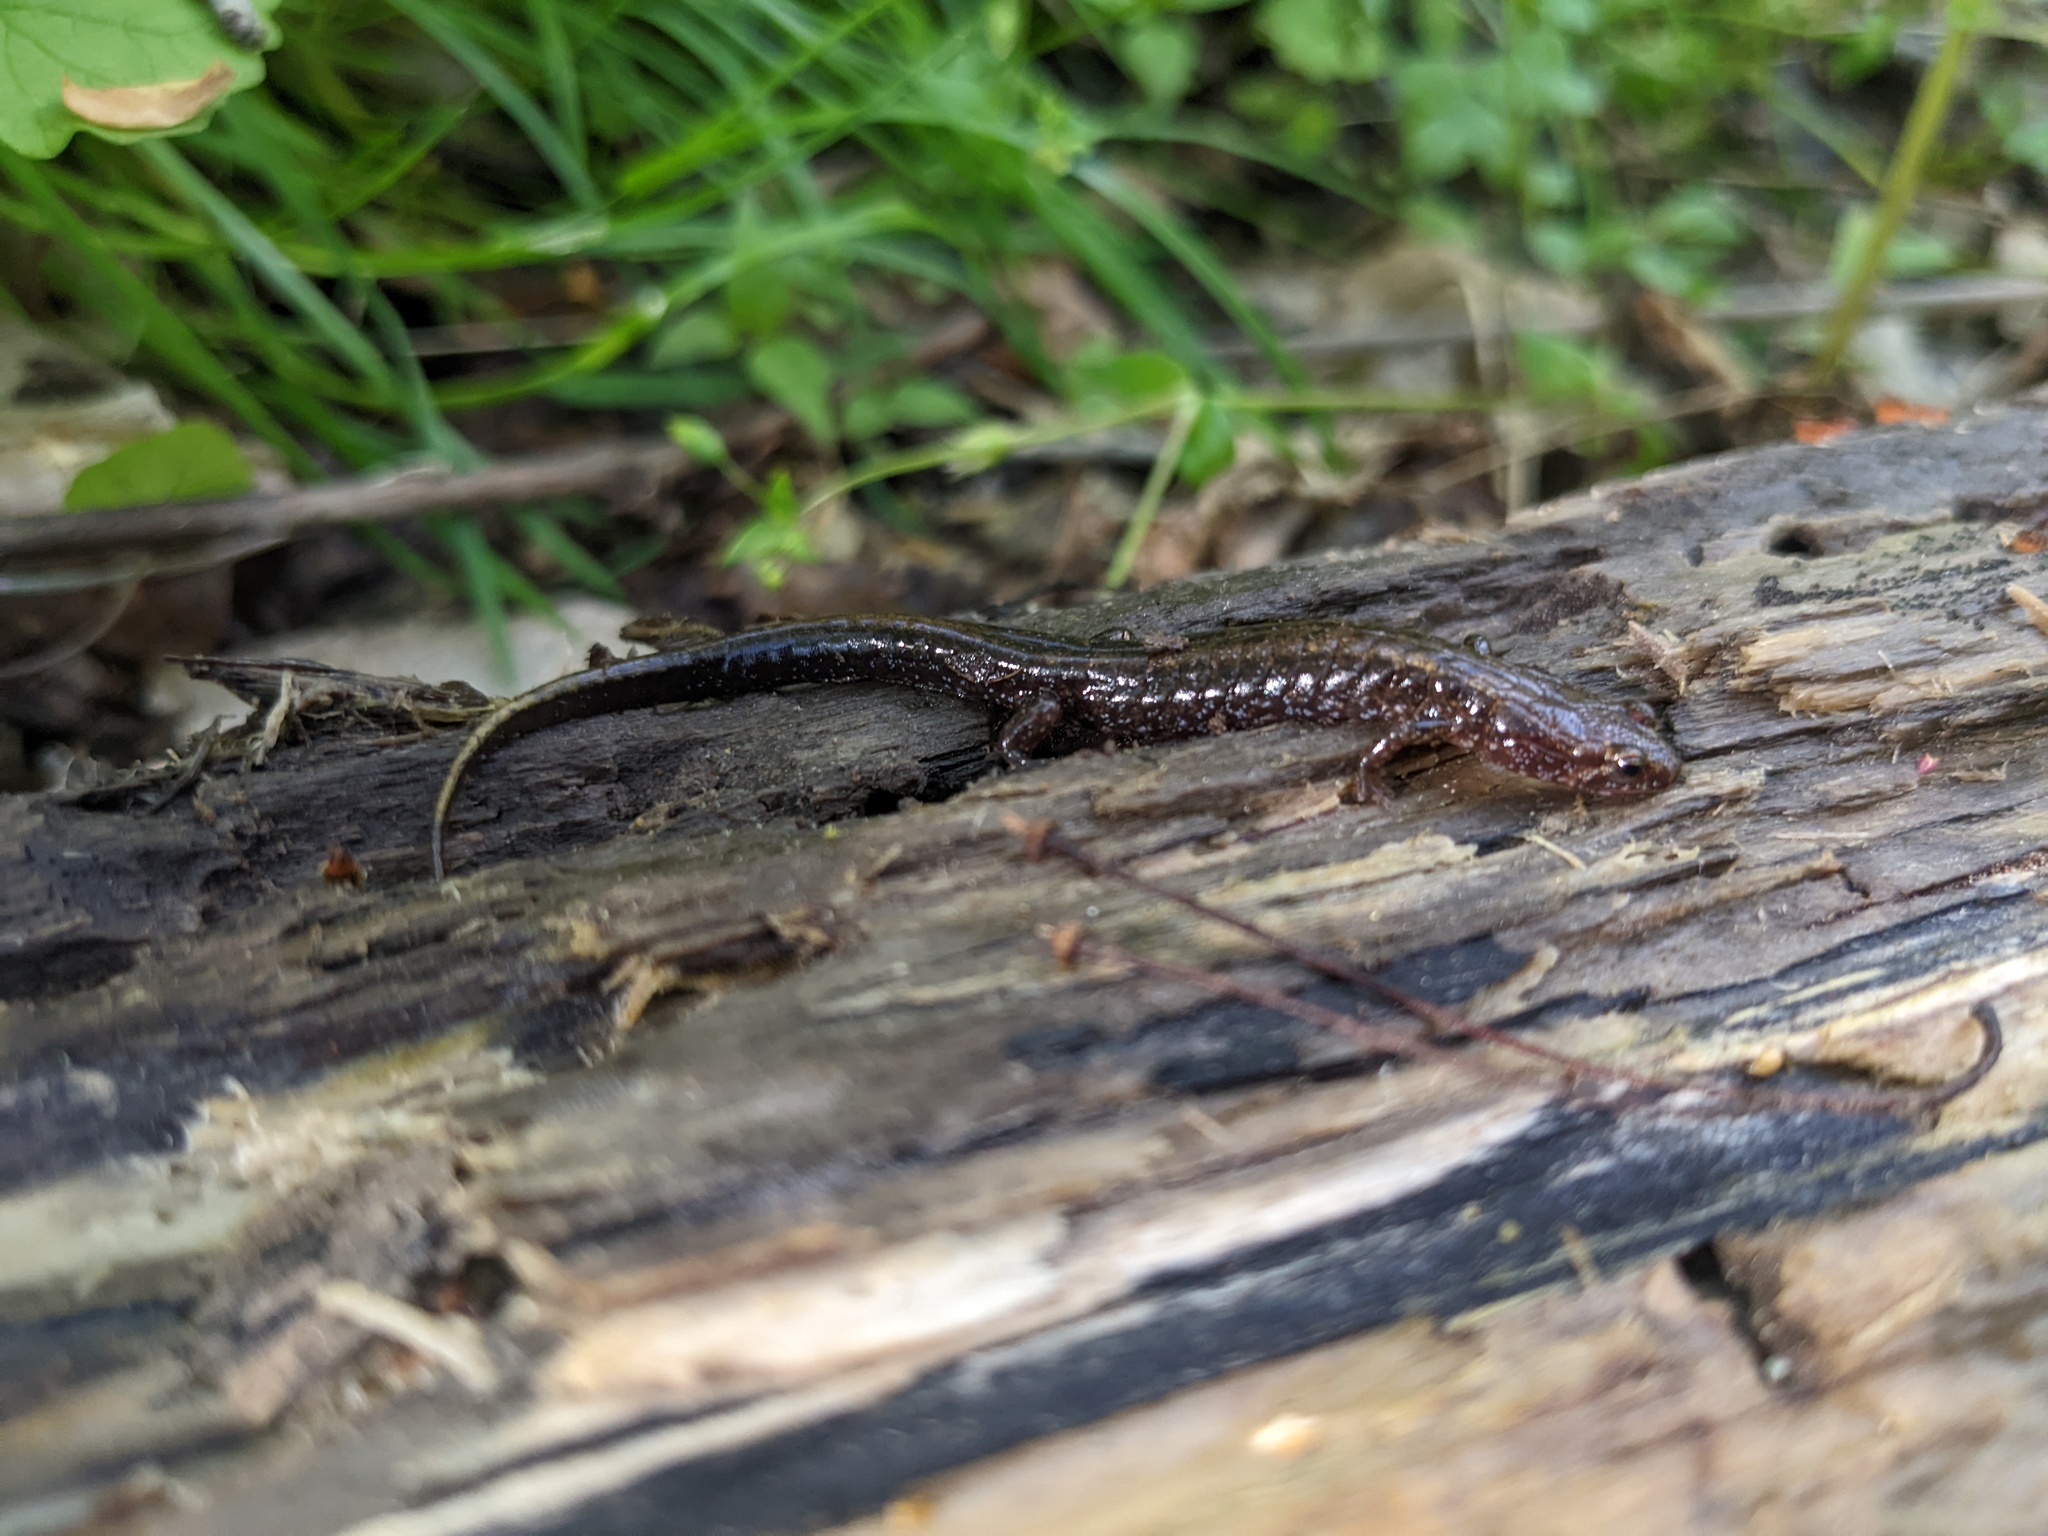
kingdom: Animalia
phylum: Chordata
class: Amphibia
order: Caudata
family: Plethodontidae
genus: Desmognathus
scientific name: Desmognathus ochrophaeus
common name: Allegheny mountain dusky salamander
